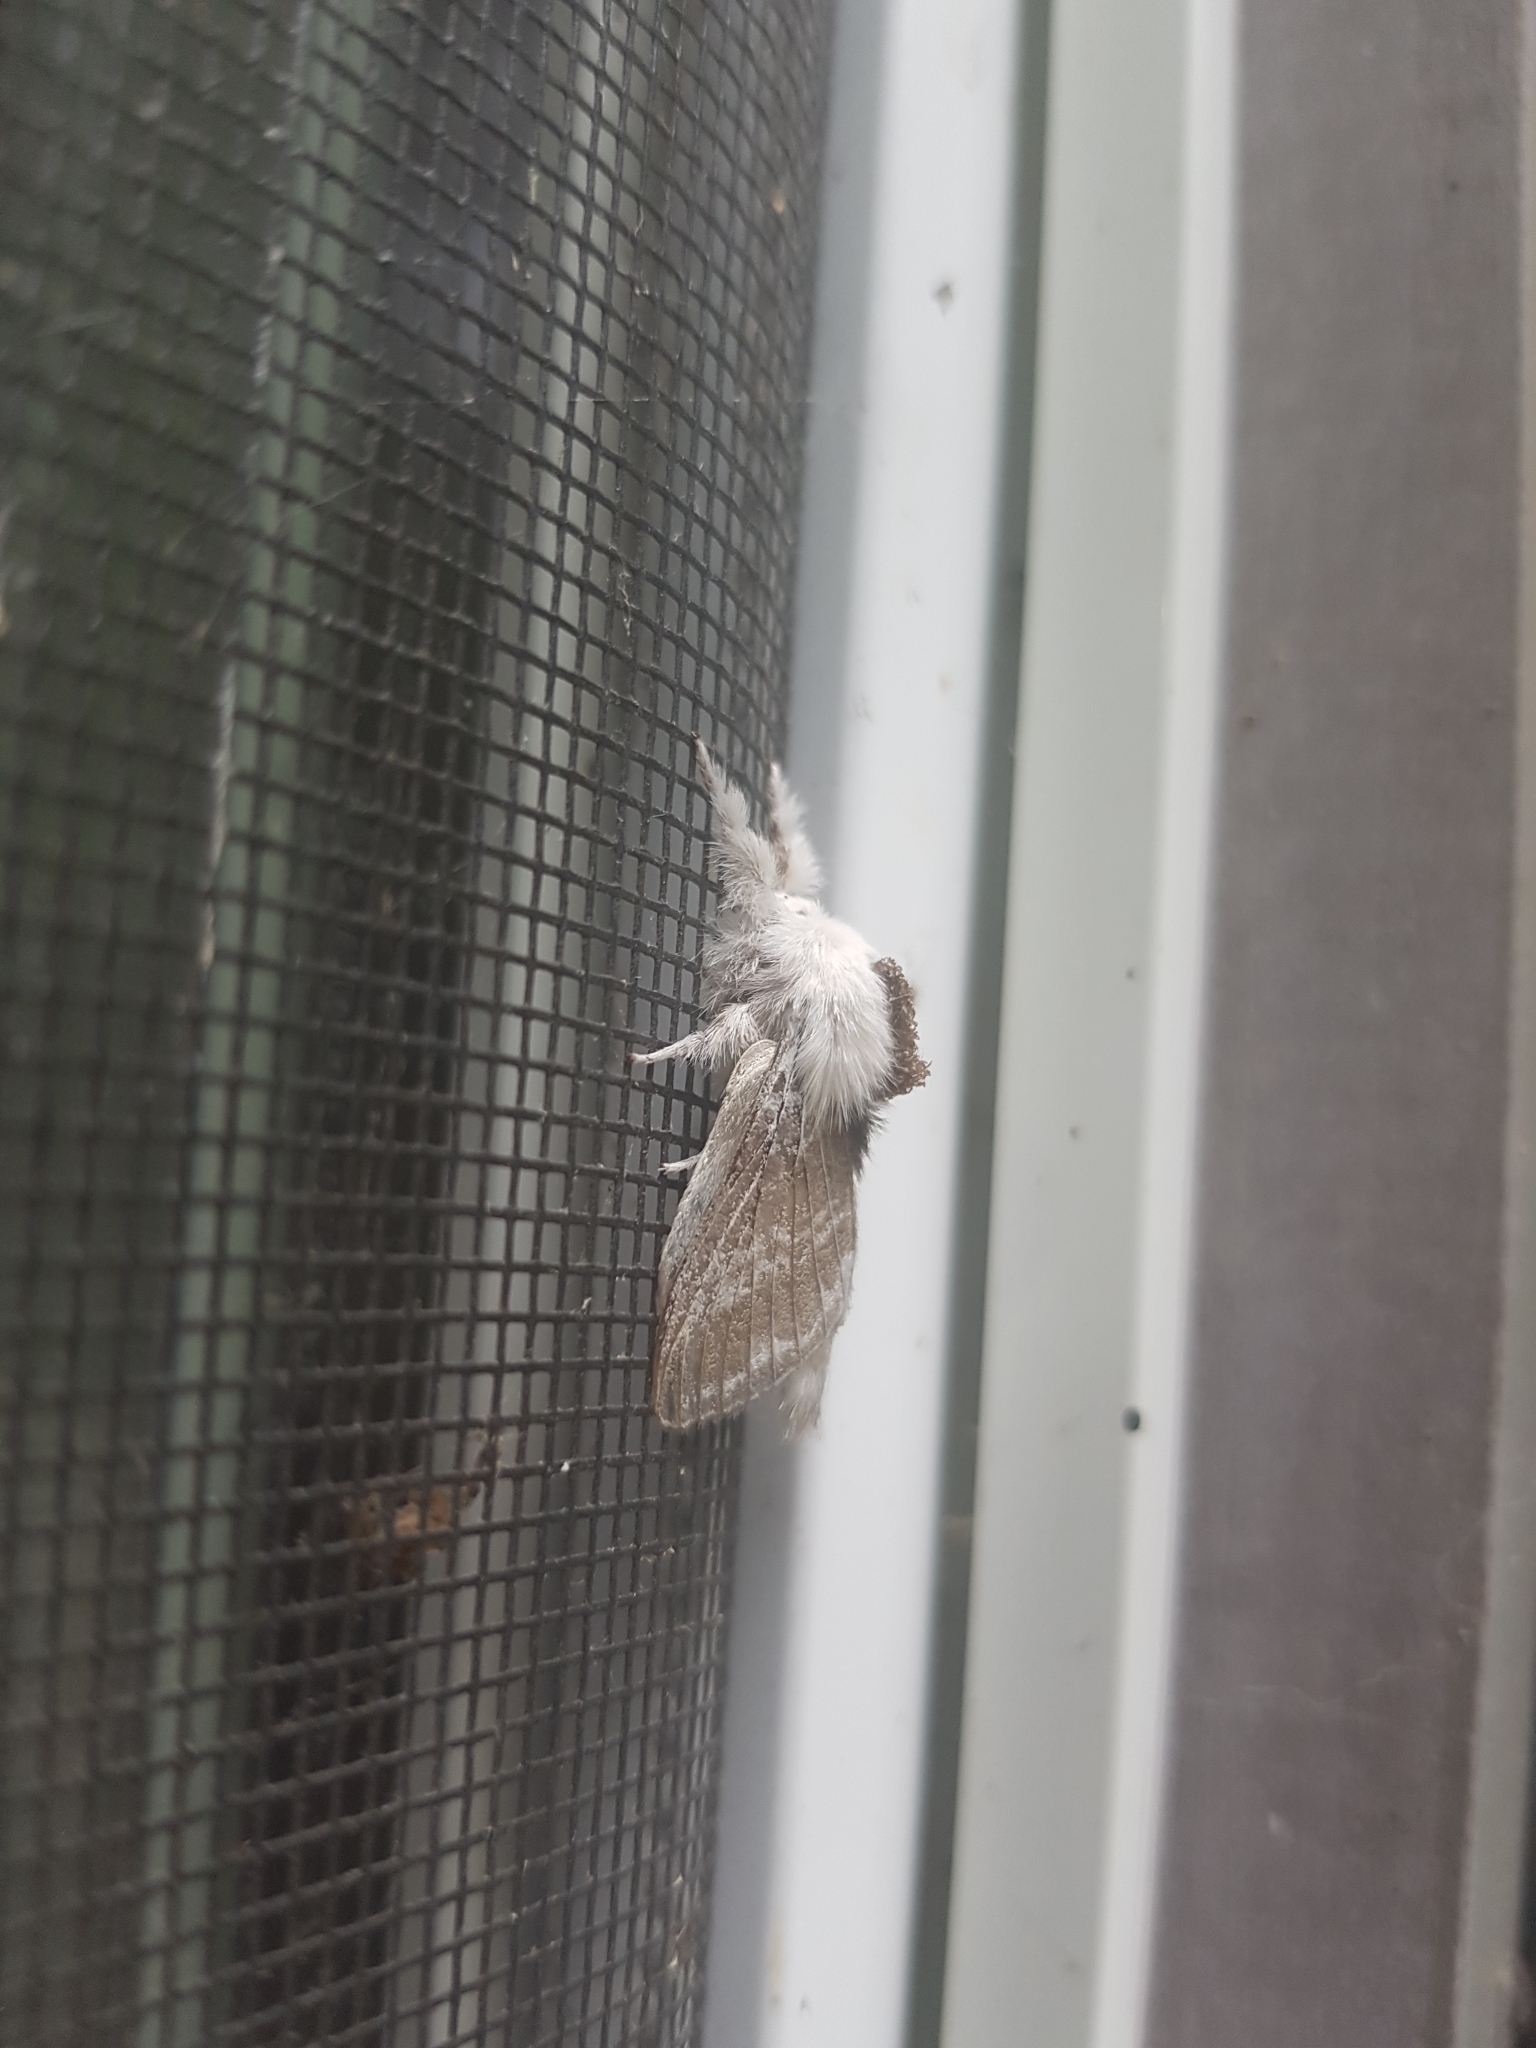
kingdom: Animalia
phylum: Arthropoda
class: Insecta
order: Lepidoptera
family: Lasiocampidae
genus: Tolype
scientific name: Tolype velleda
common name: Large tolype moth
